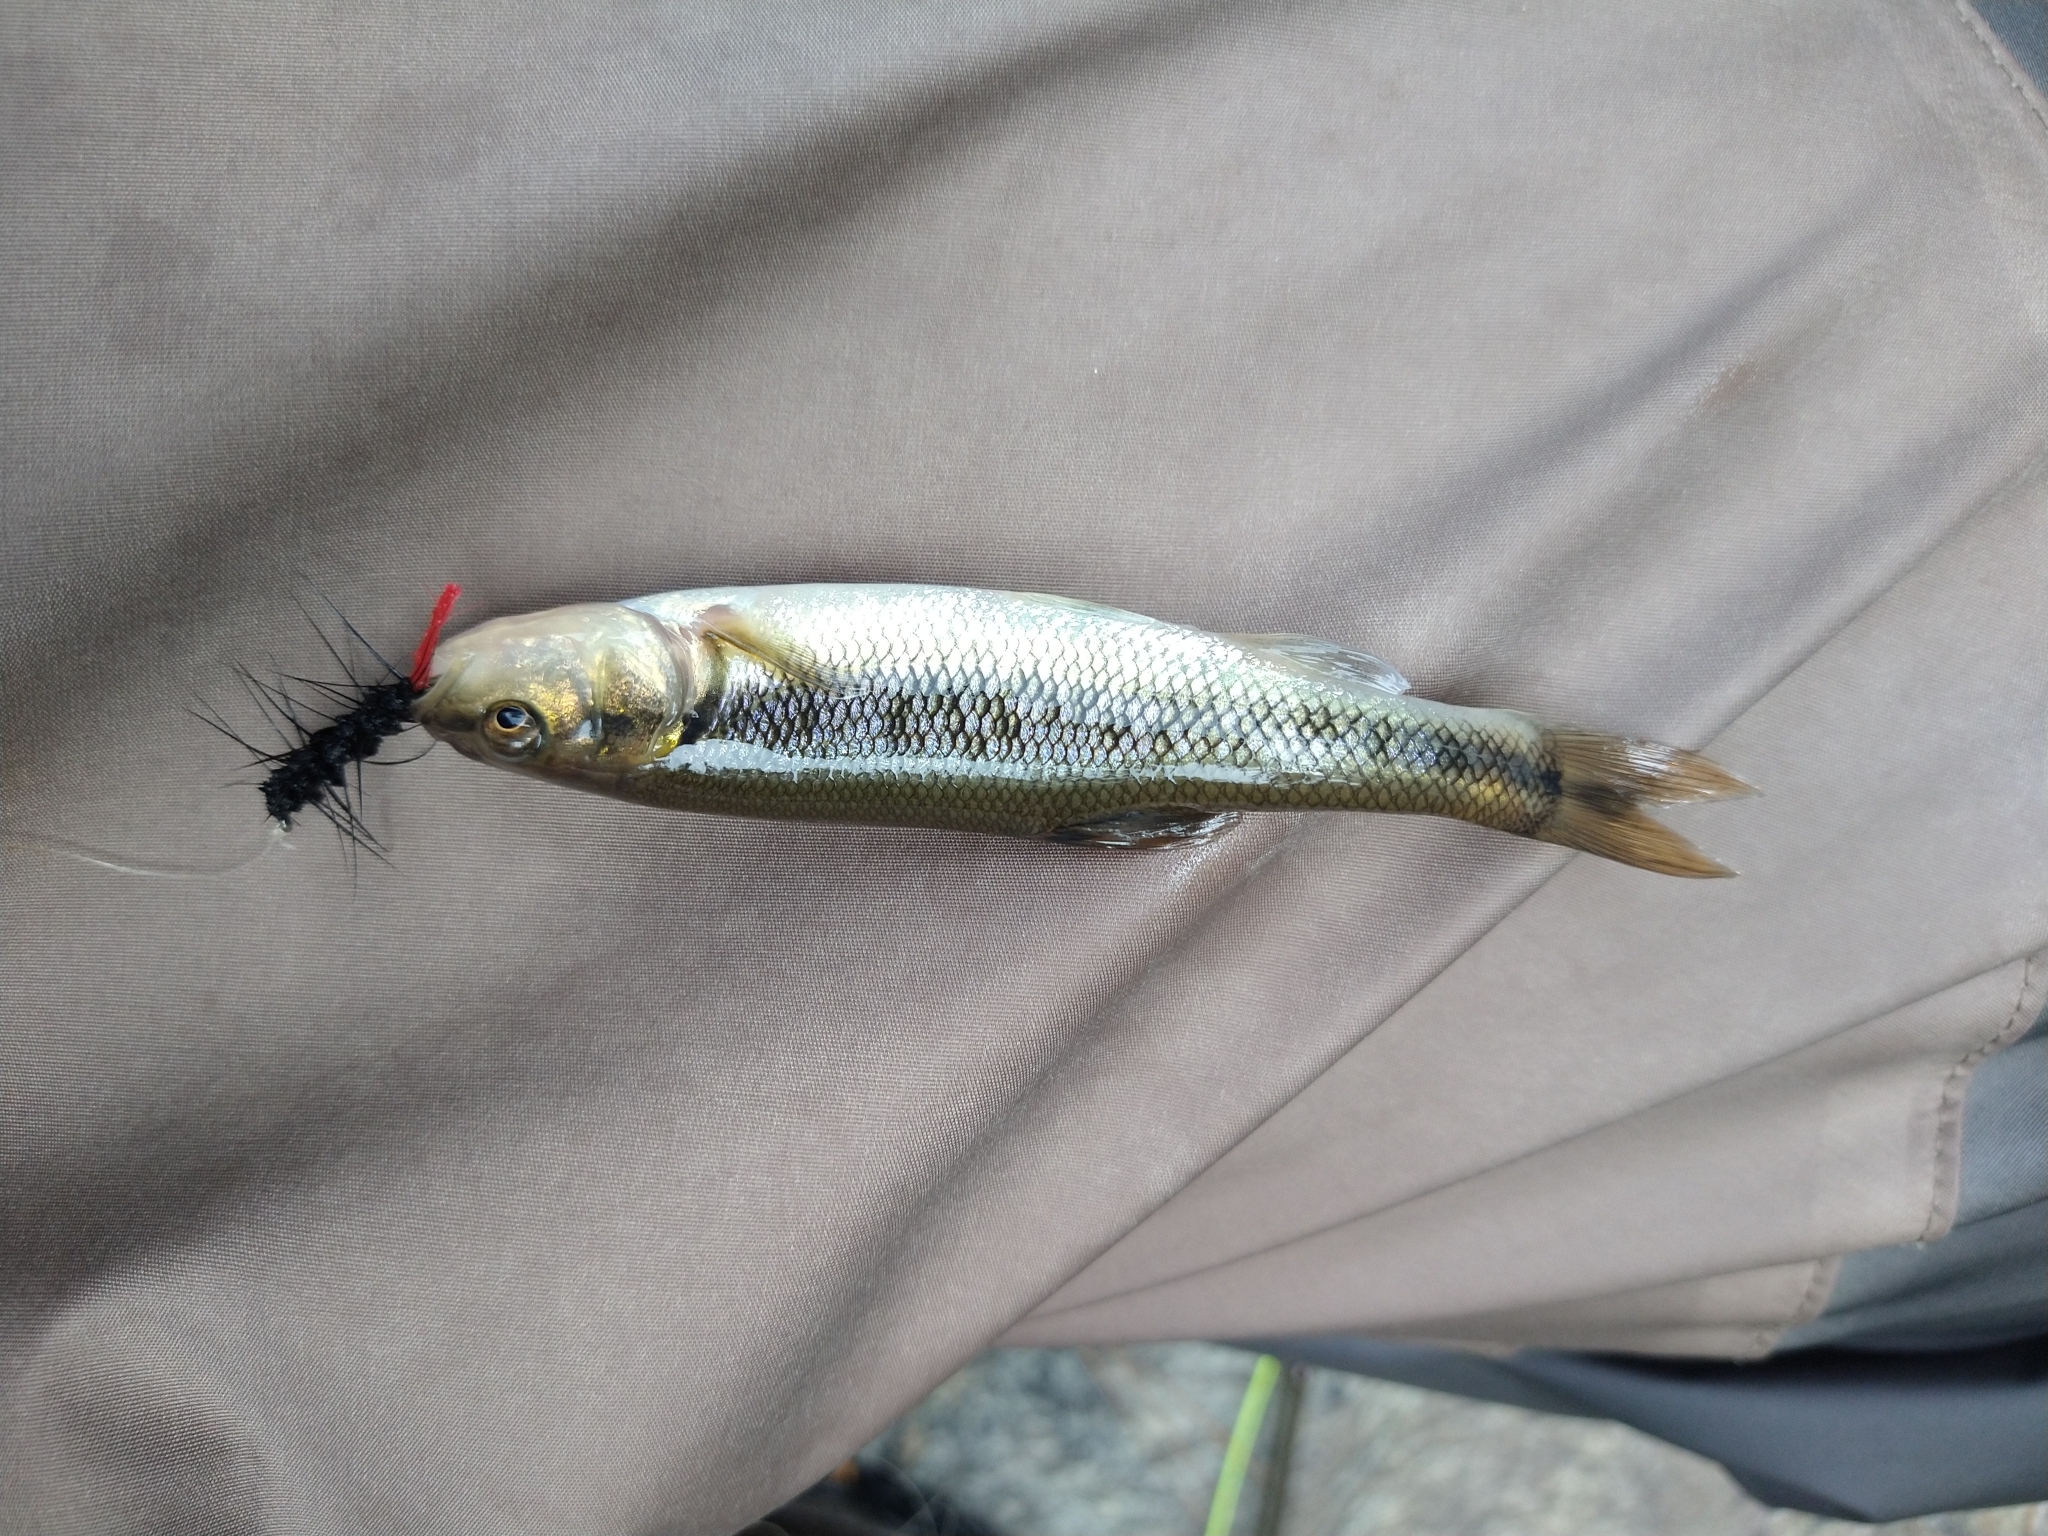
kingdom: Animalia
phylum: Chordata
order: Cypriniformes
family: Cyprinidae
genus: Semotilus
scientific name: Semotilus atromaculatus
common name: Creek chub
